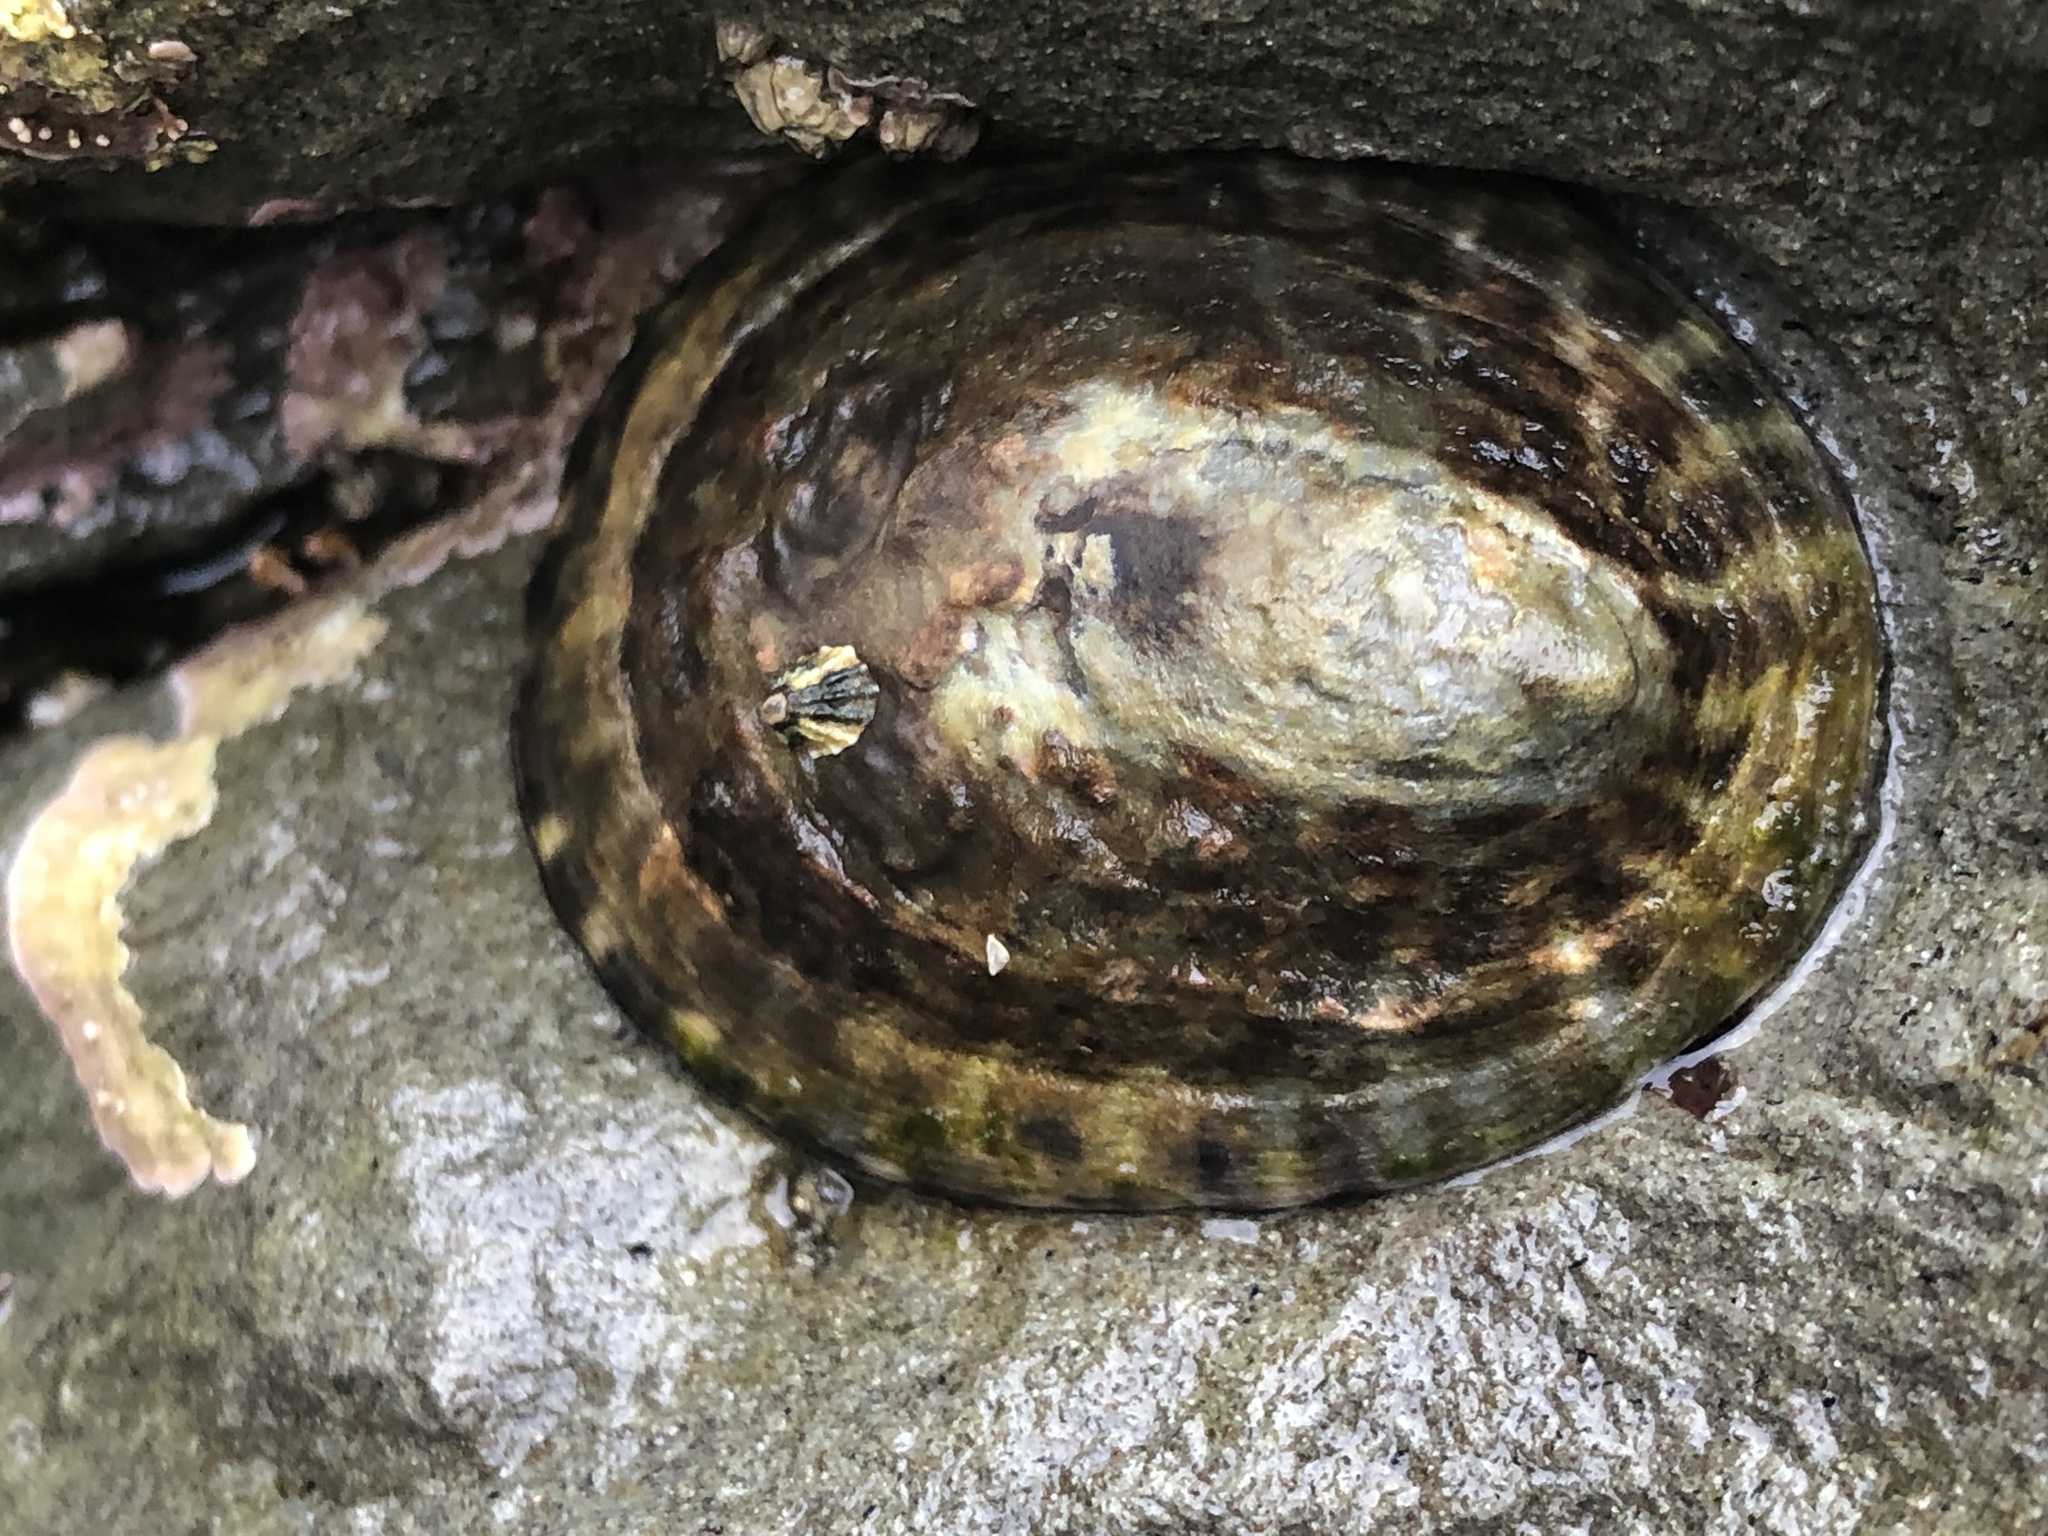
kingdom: Animalia
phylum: Mollusca
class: Gastropoda
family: Lottiidae
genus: Lottia
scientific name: Lottia gigantea
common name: Owl limpet
